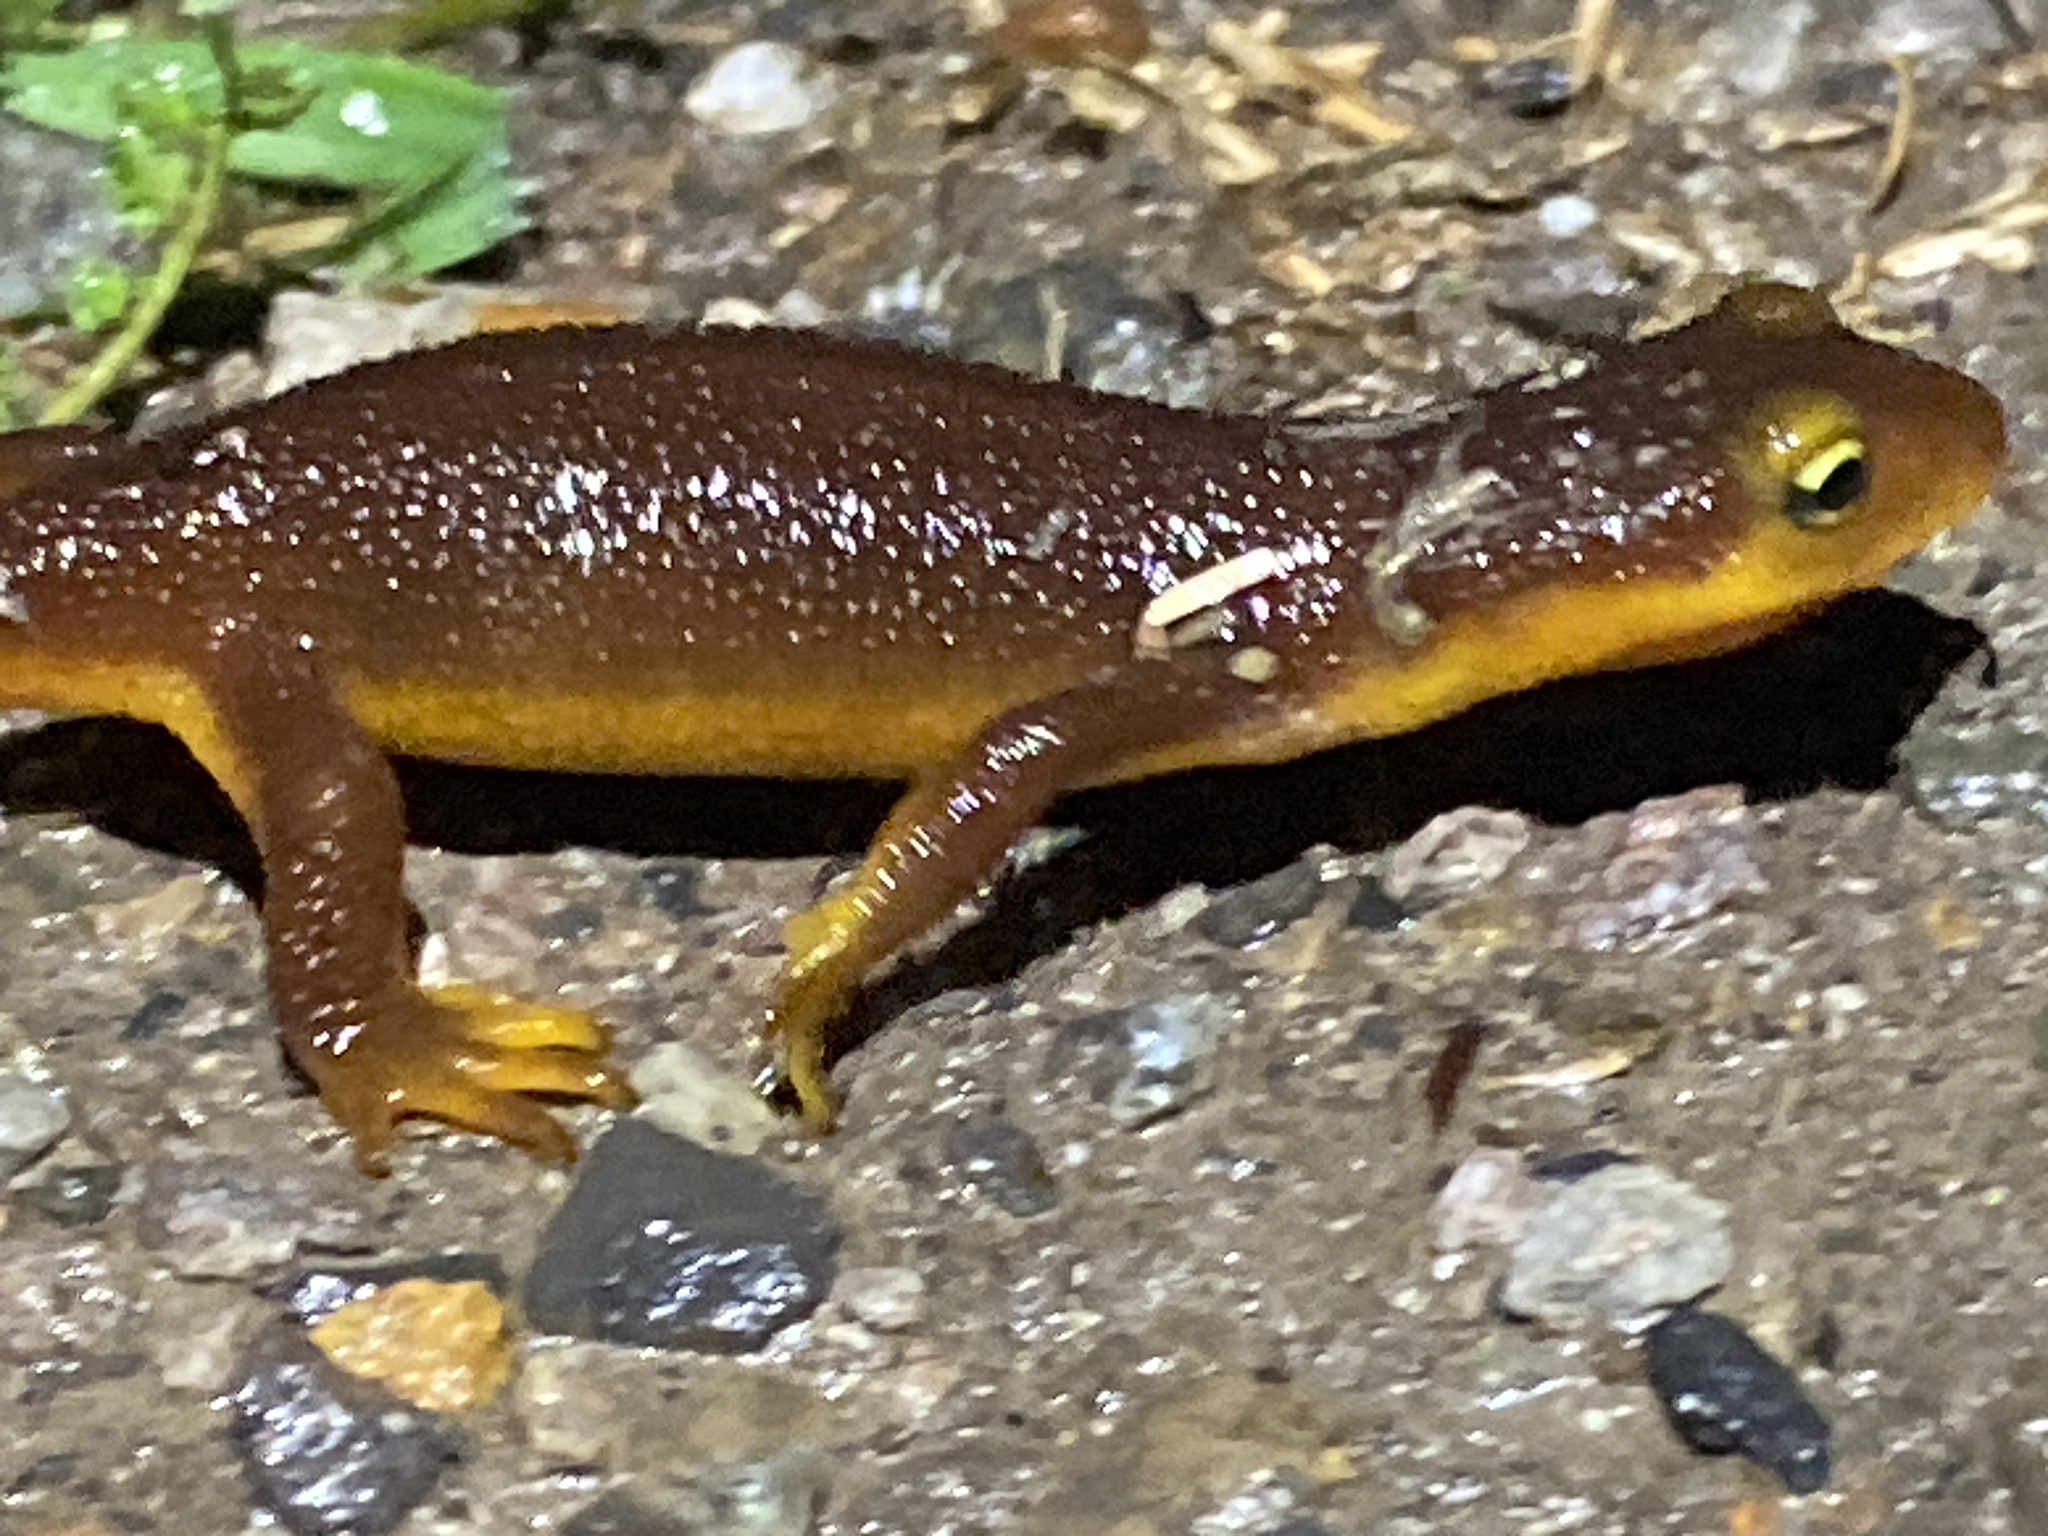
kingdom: Animalia
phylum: Chordata
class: Amphibia
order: Caudata
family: Salamandridae
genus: Taricha
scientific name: Taricha torosa
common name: California newt
